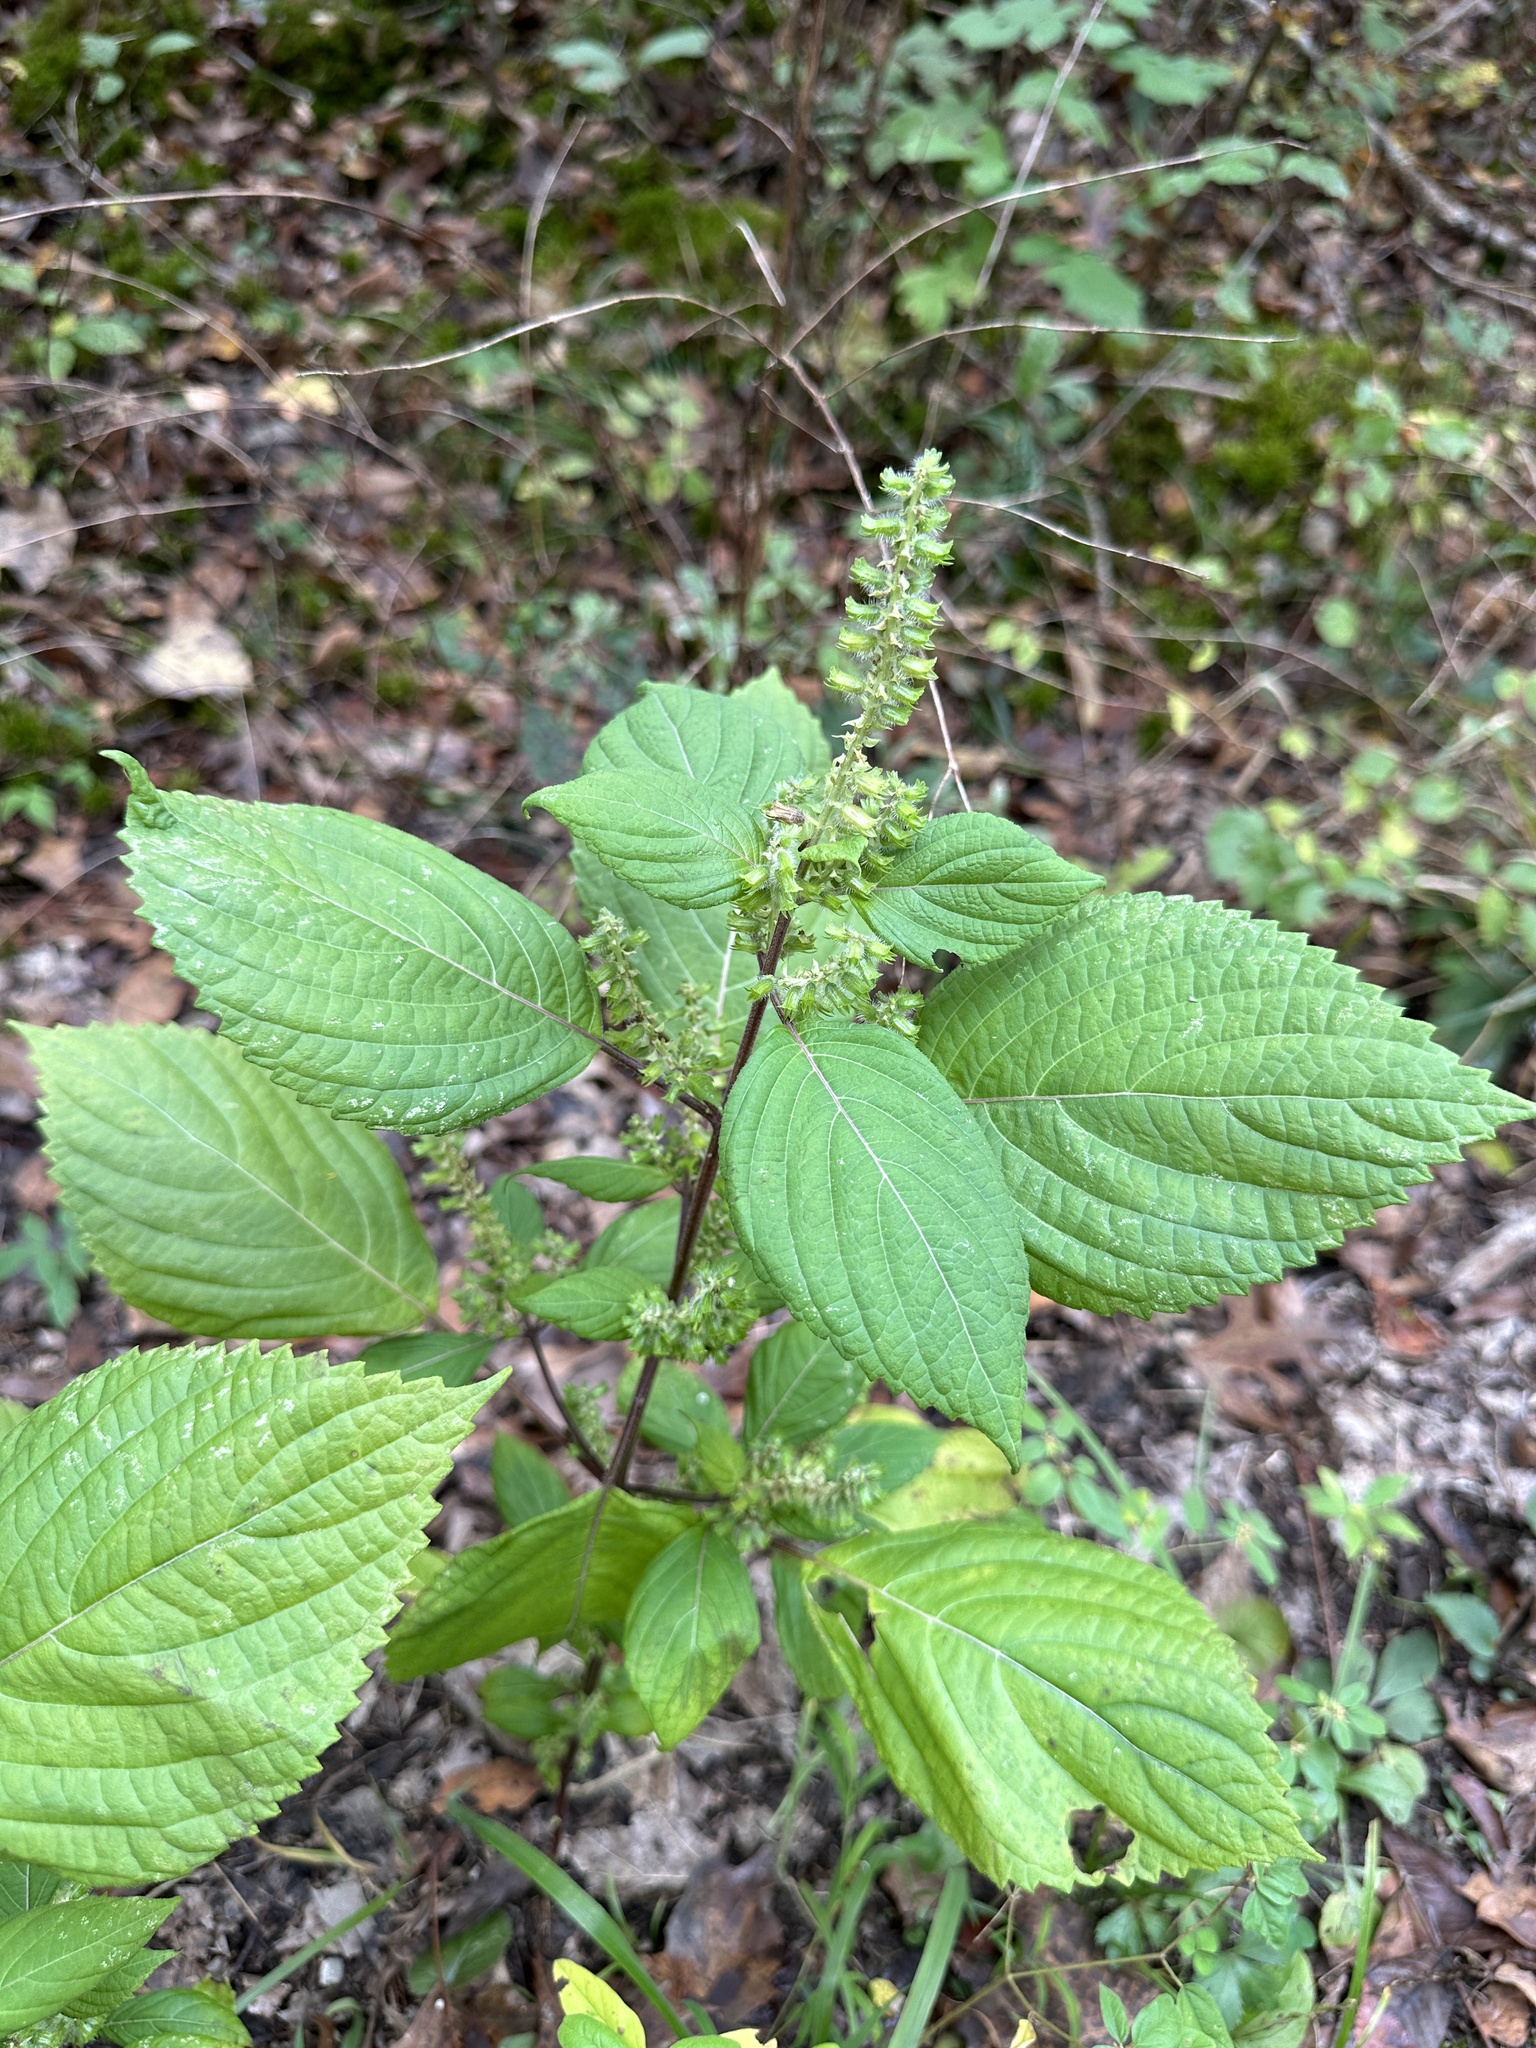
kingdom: Plantae
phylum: Tracheophyta
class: Magnoliopsida
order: Lamiales
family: Lamiaceae
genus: Perilla
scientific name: Perilla frutescens
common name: Perilla
